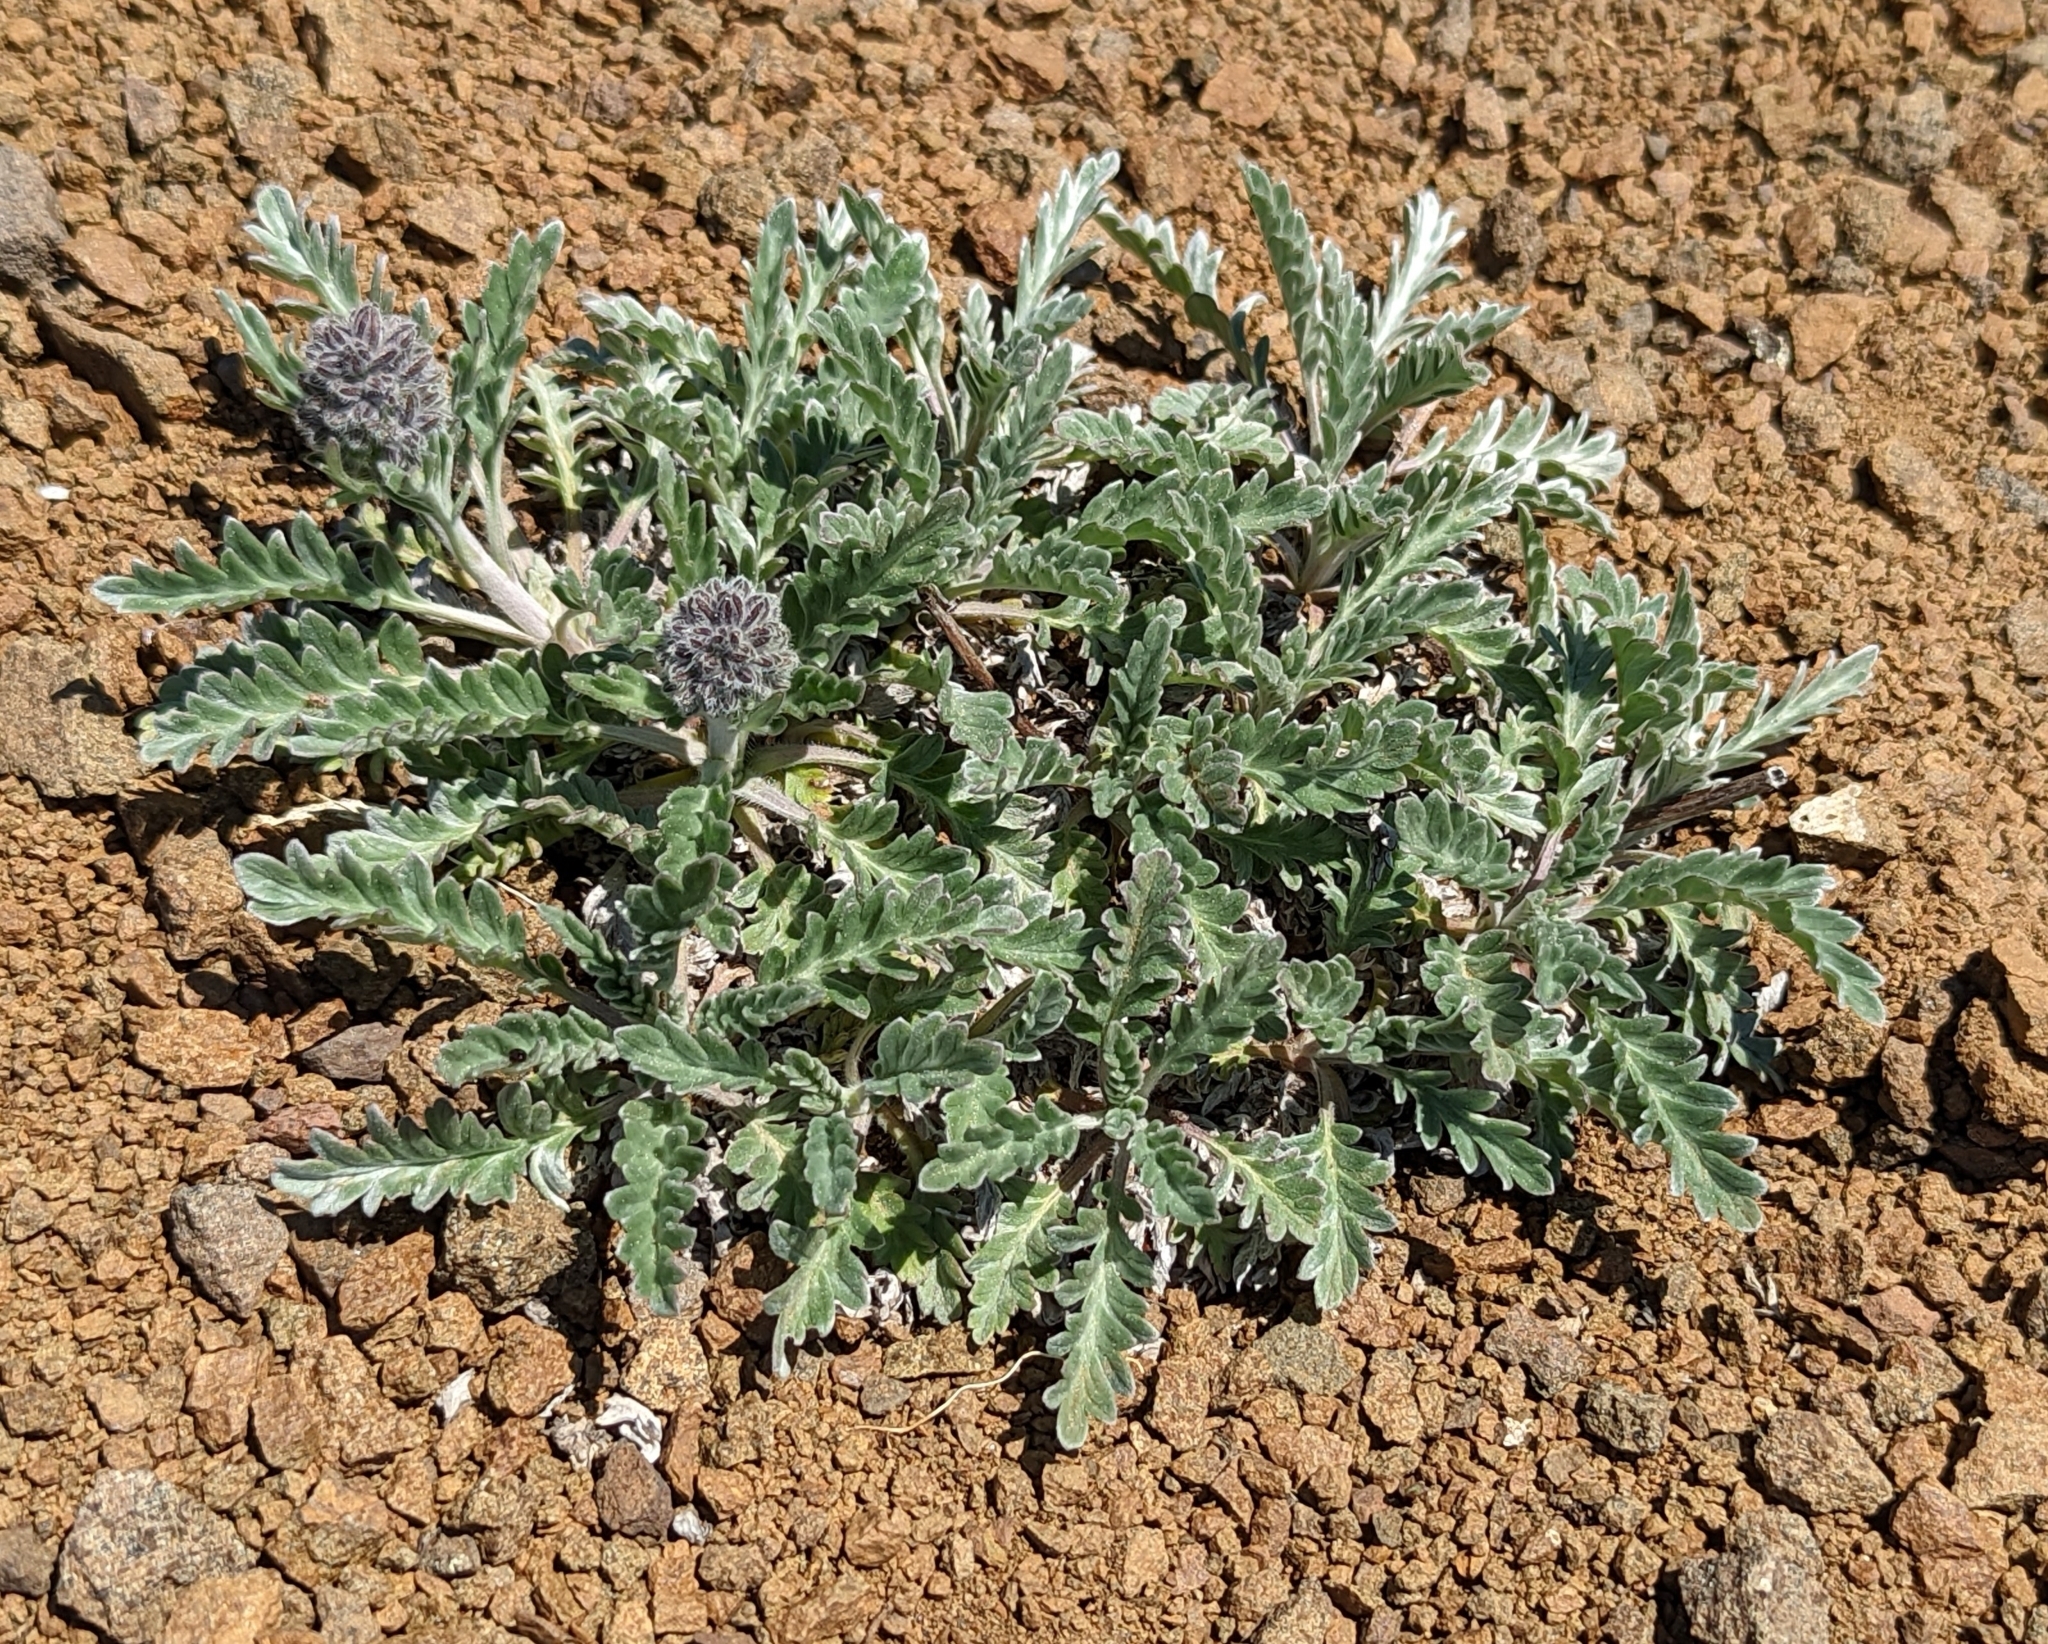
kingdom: Plantae
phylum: Tracheophyta
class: Magnoliopsida
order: Boraginales
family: Hydrophyllaceae
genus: Phacelia
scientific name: Phacelia sericea
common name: Silky phacelia
